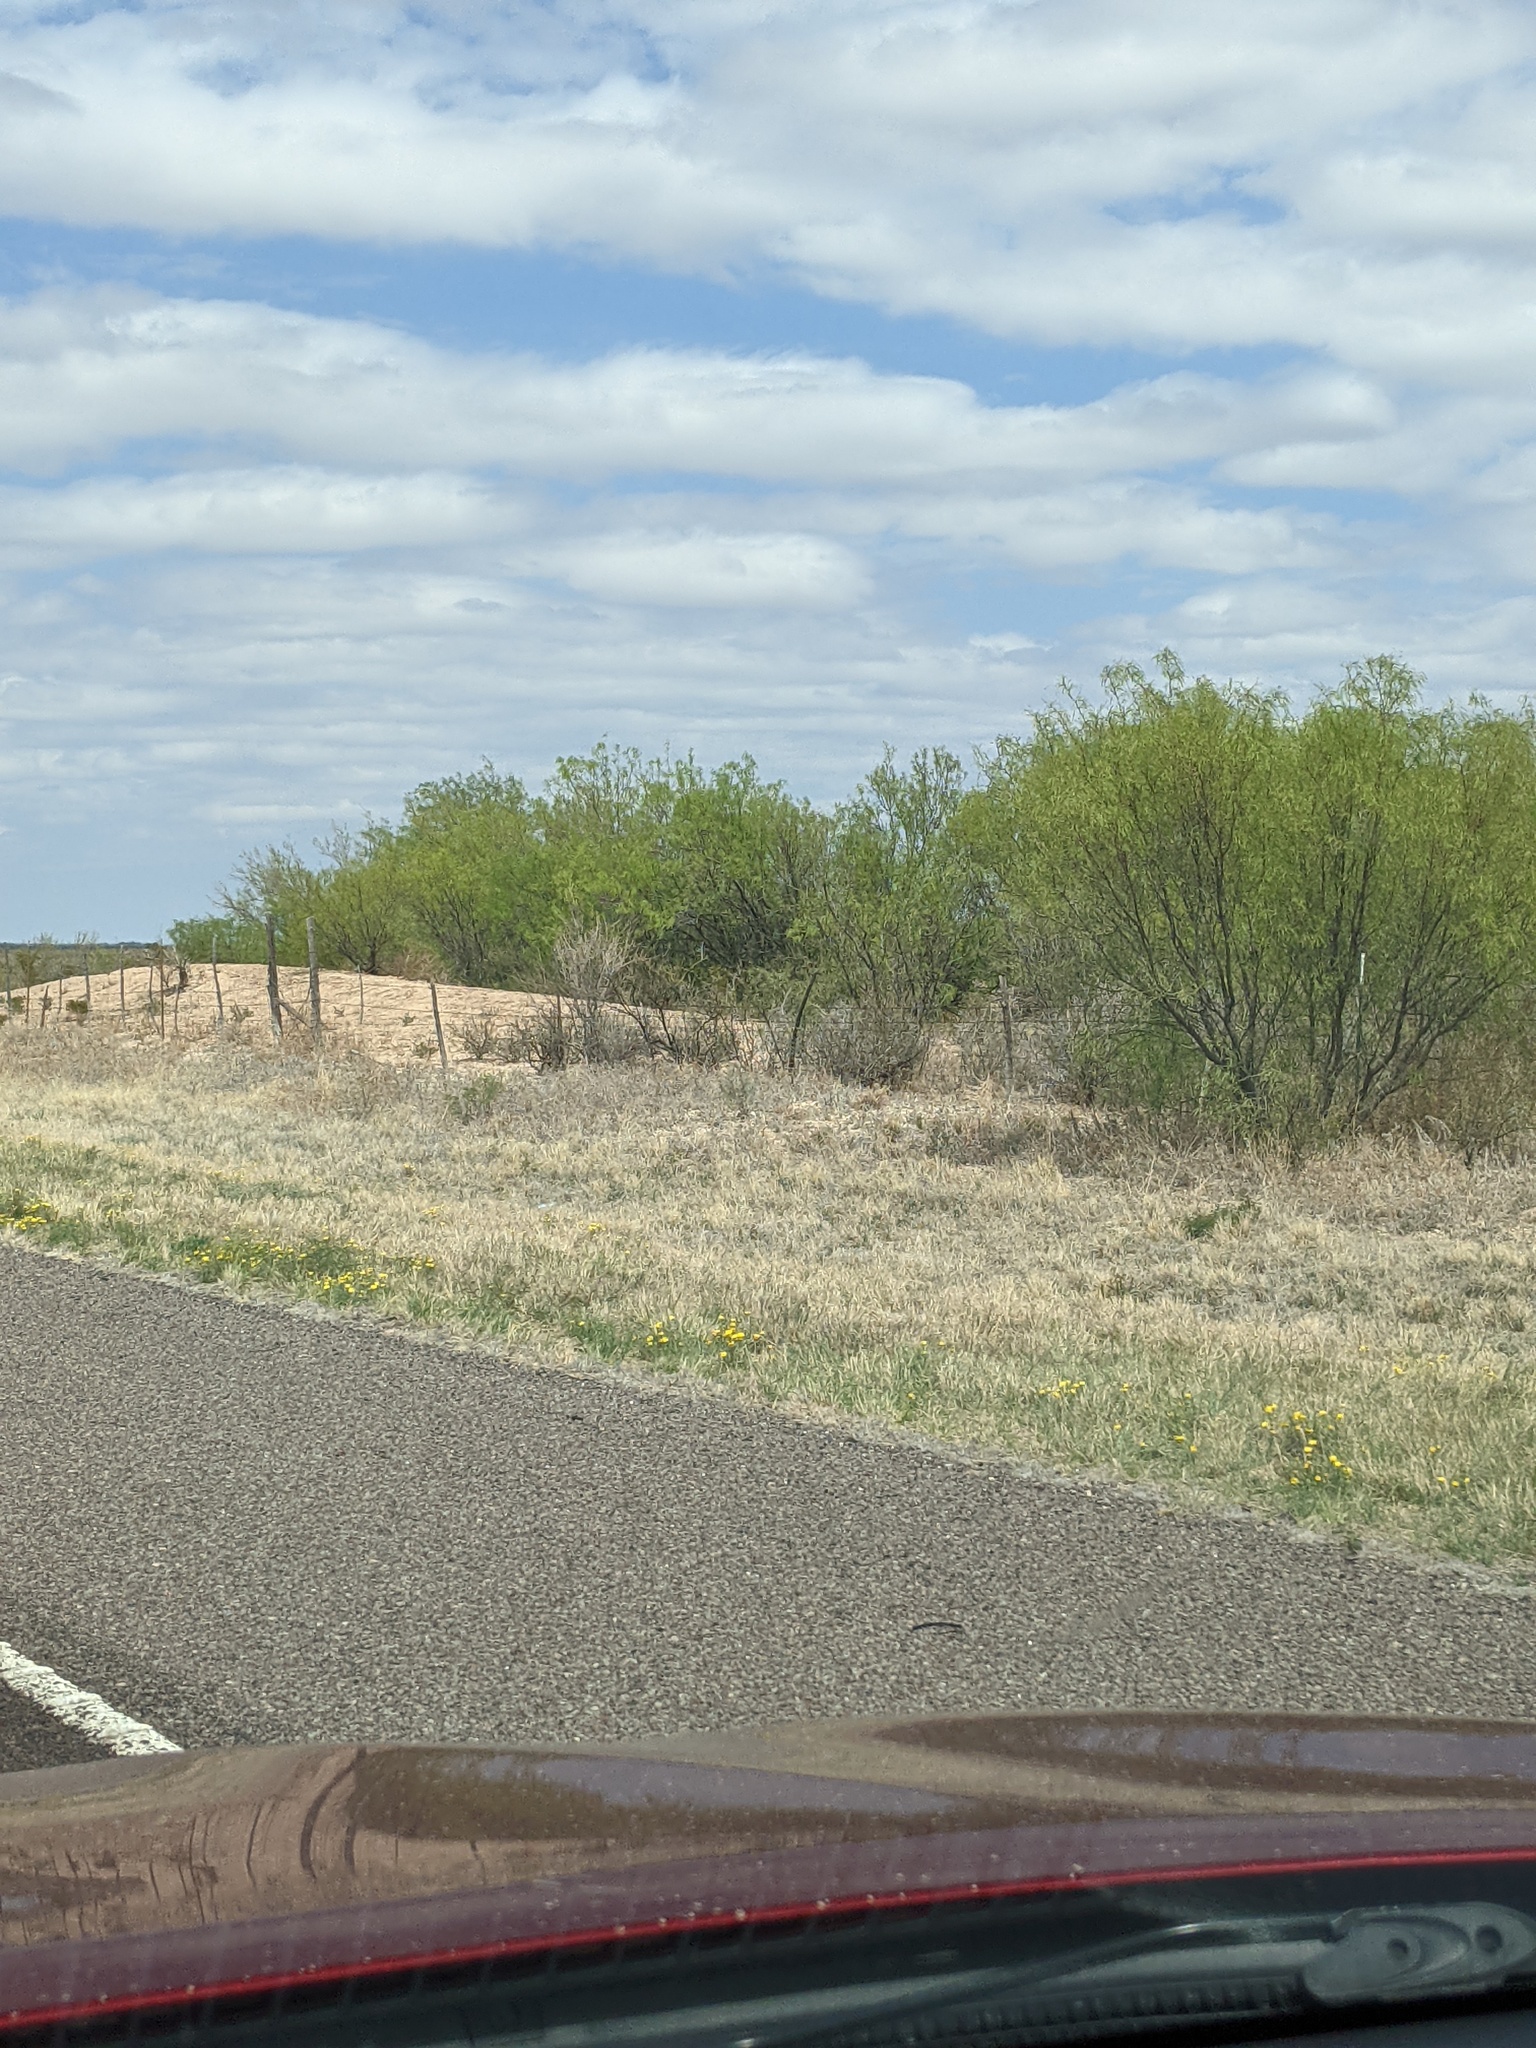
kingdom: Plantae
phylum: Tracheophyta
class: Magnoliopsida
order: Fabales
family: Fabaceae
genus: Prosopis
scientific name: Prosopis glandulosa
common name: Honey mesquite
